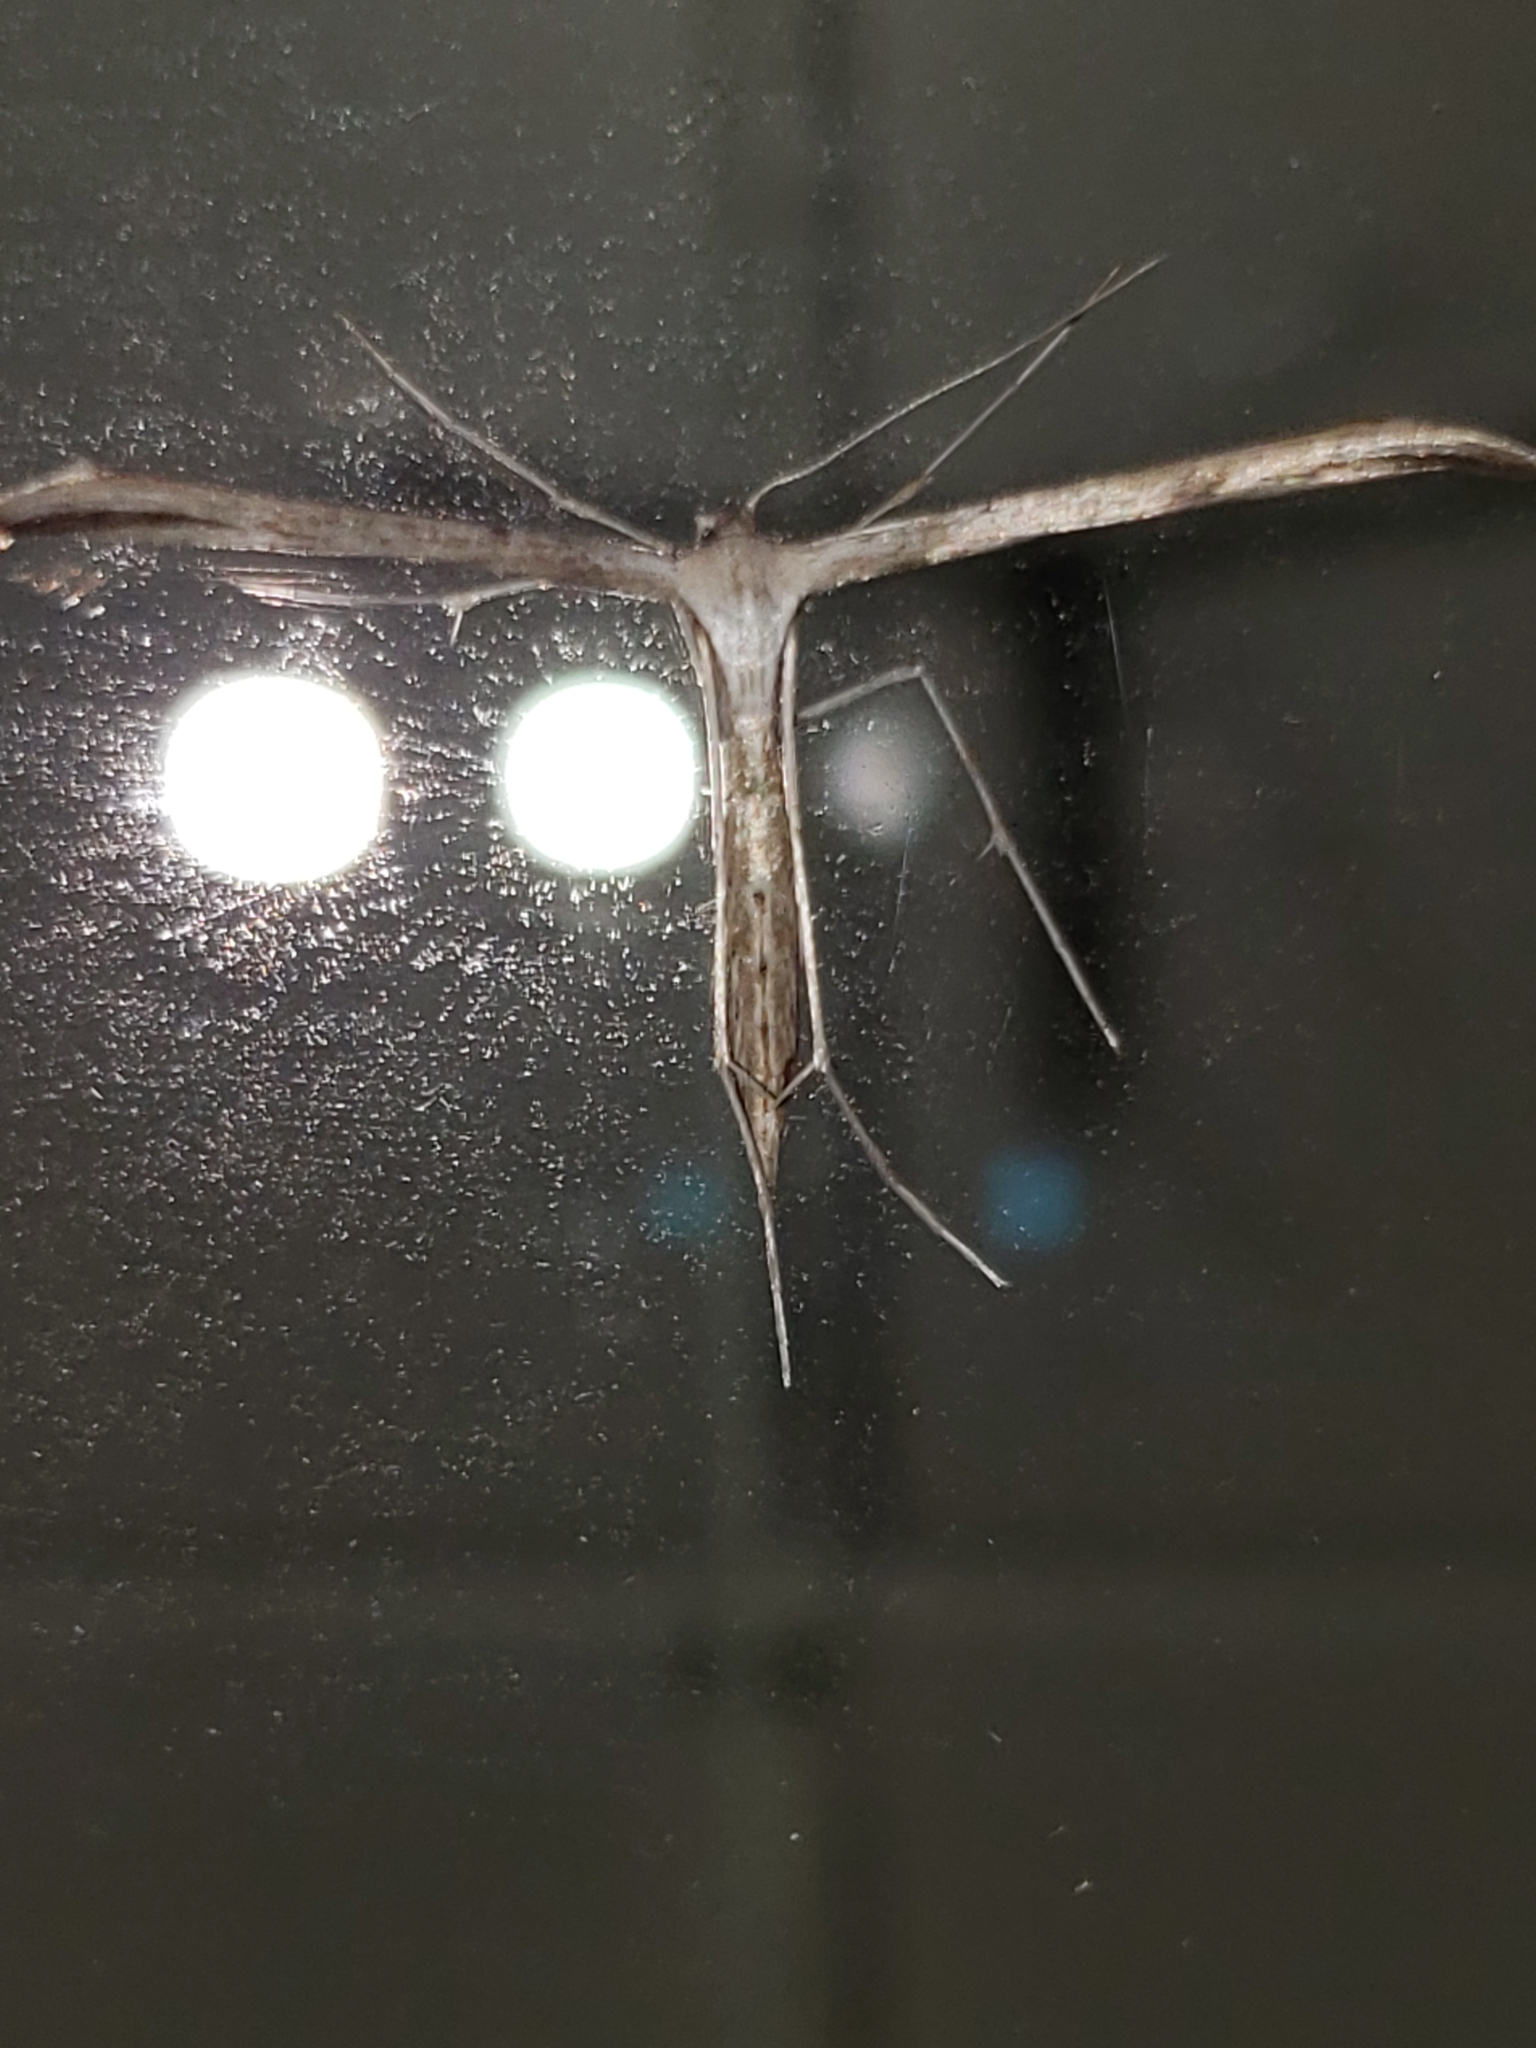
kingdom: Animalia
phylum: Arthropoda
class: Insecta
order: Lepidoptera
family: Pterophoridae
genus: Emmelina
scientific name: Emmelina monodactyla
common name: Common plume
